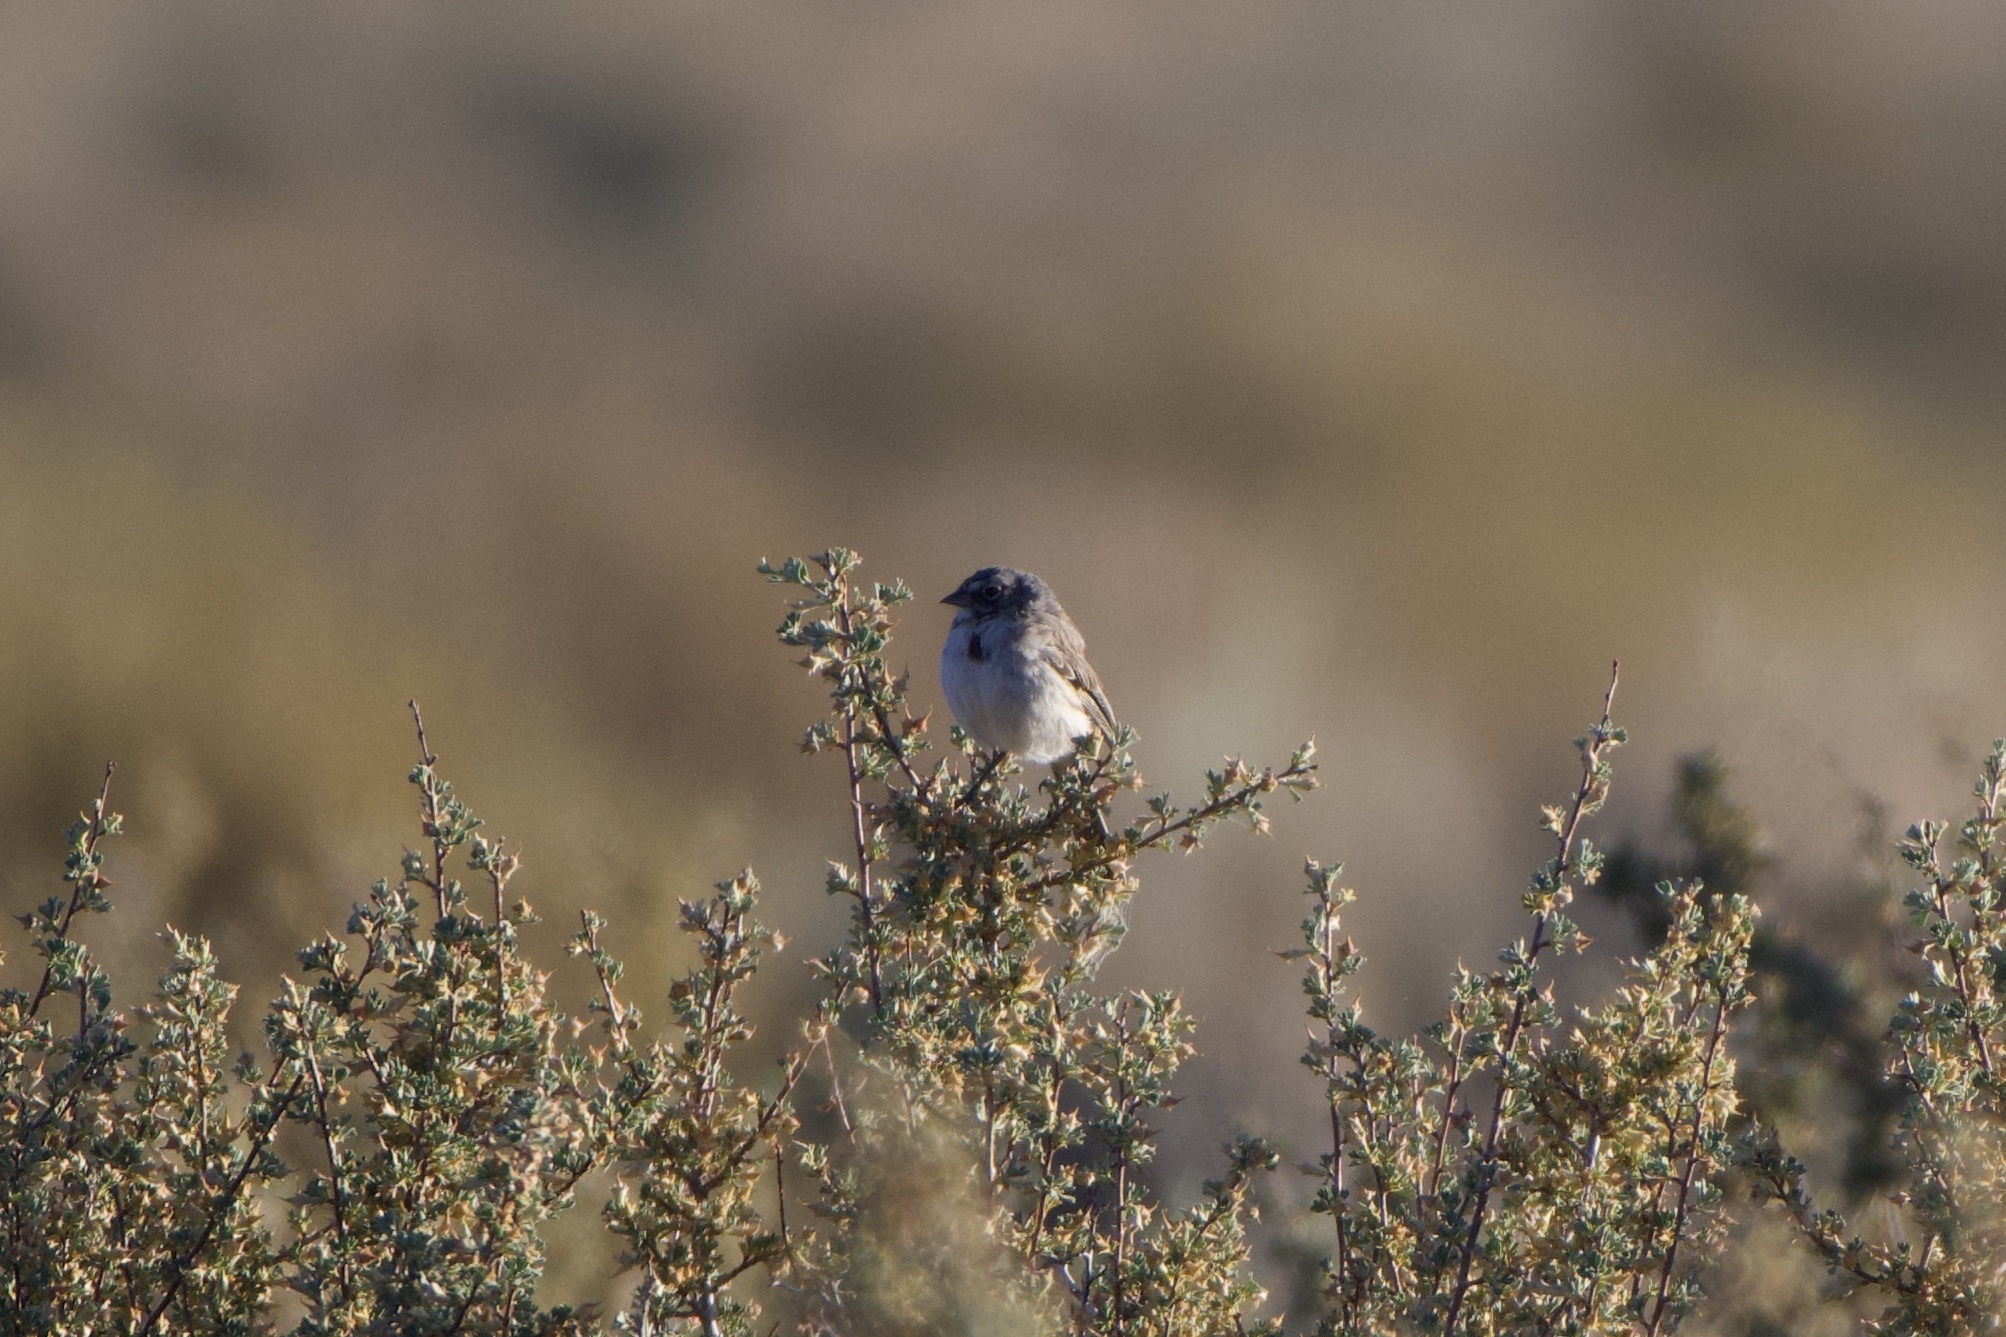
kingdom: Animalia
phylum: Chordata
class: Aves
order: Passeriformes
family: Passerellidae
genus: Artemisiospiza
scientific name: Artemisiospiza nevadensis
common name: Sagebrush sparrow
